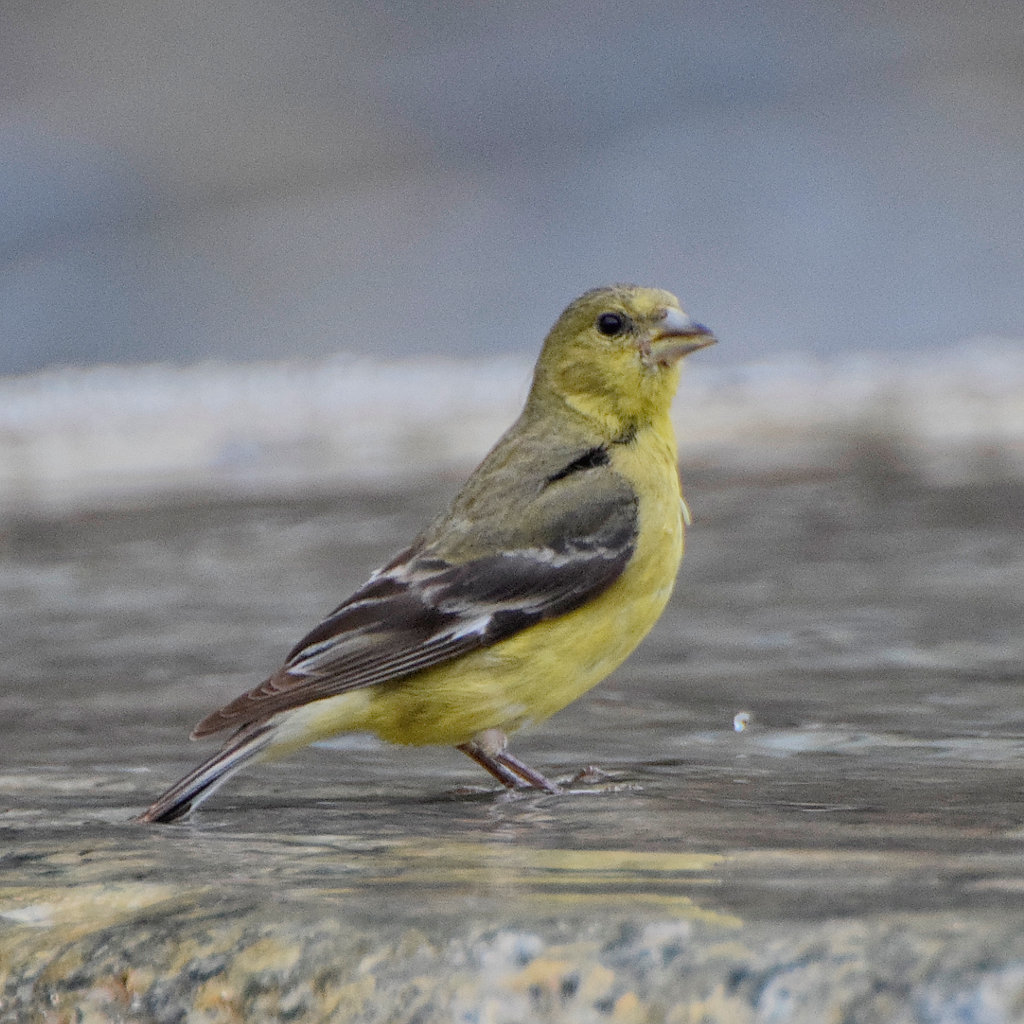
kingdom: Animalia
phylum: Chordata
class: Aves
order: Passeriformes
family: Fringillidae
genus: Spinus
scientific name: Spinus psaltria
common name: Lesser goldfinch
